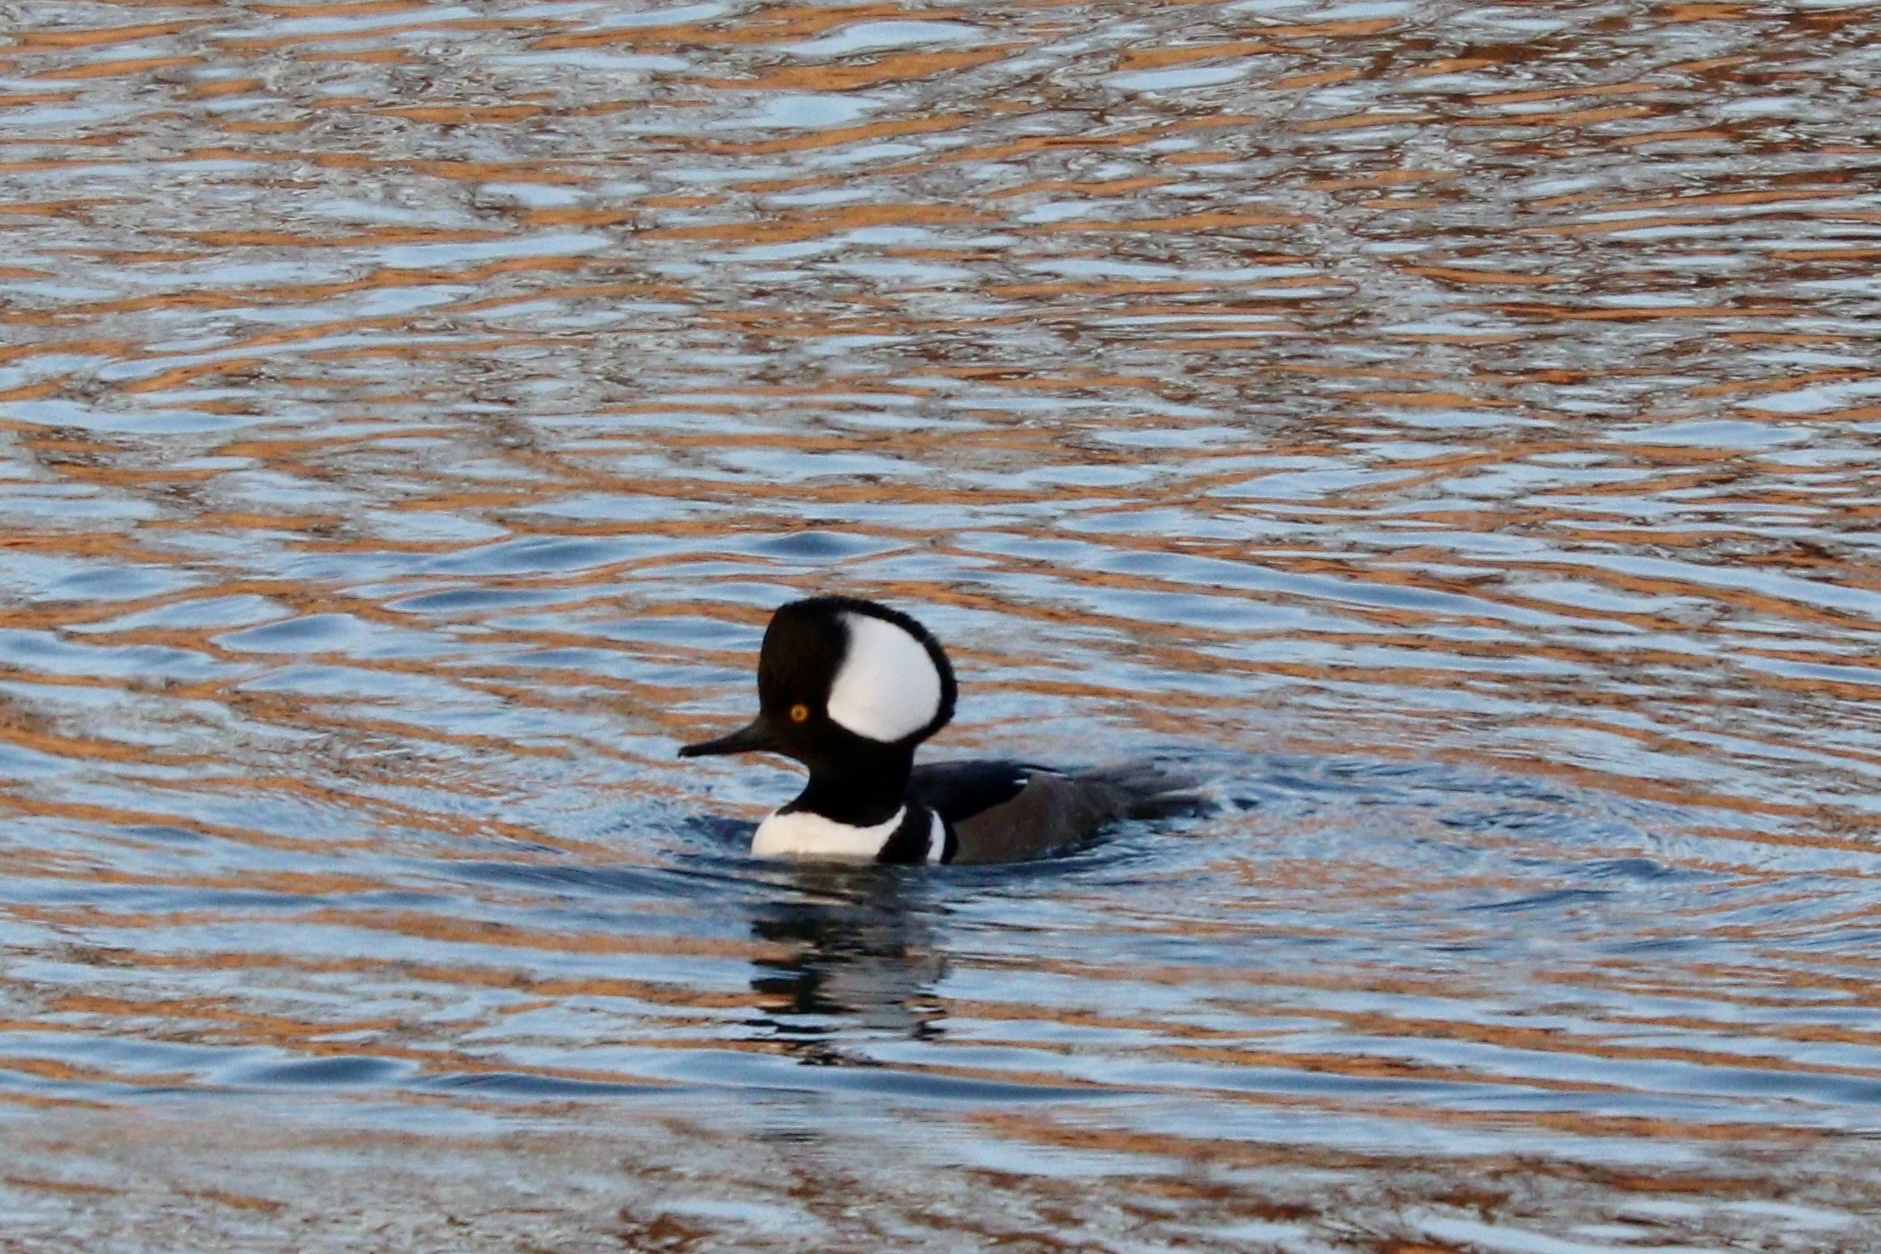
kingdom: Animalia
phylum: Chordata
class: Aves
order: Anseriformes
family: Anatidae
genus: Lophodytes
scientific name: Lophodytes cucullatus
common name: Hooded merganser
